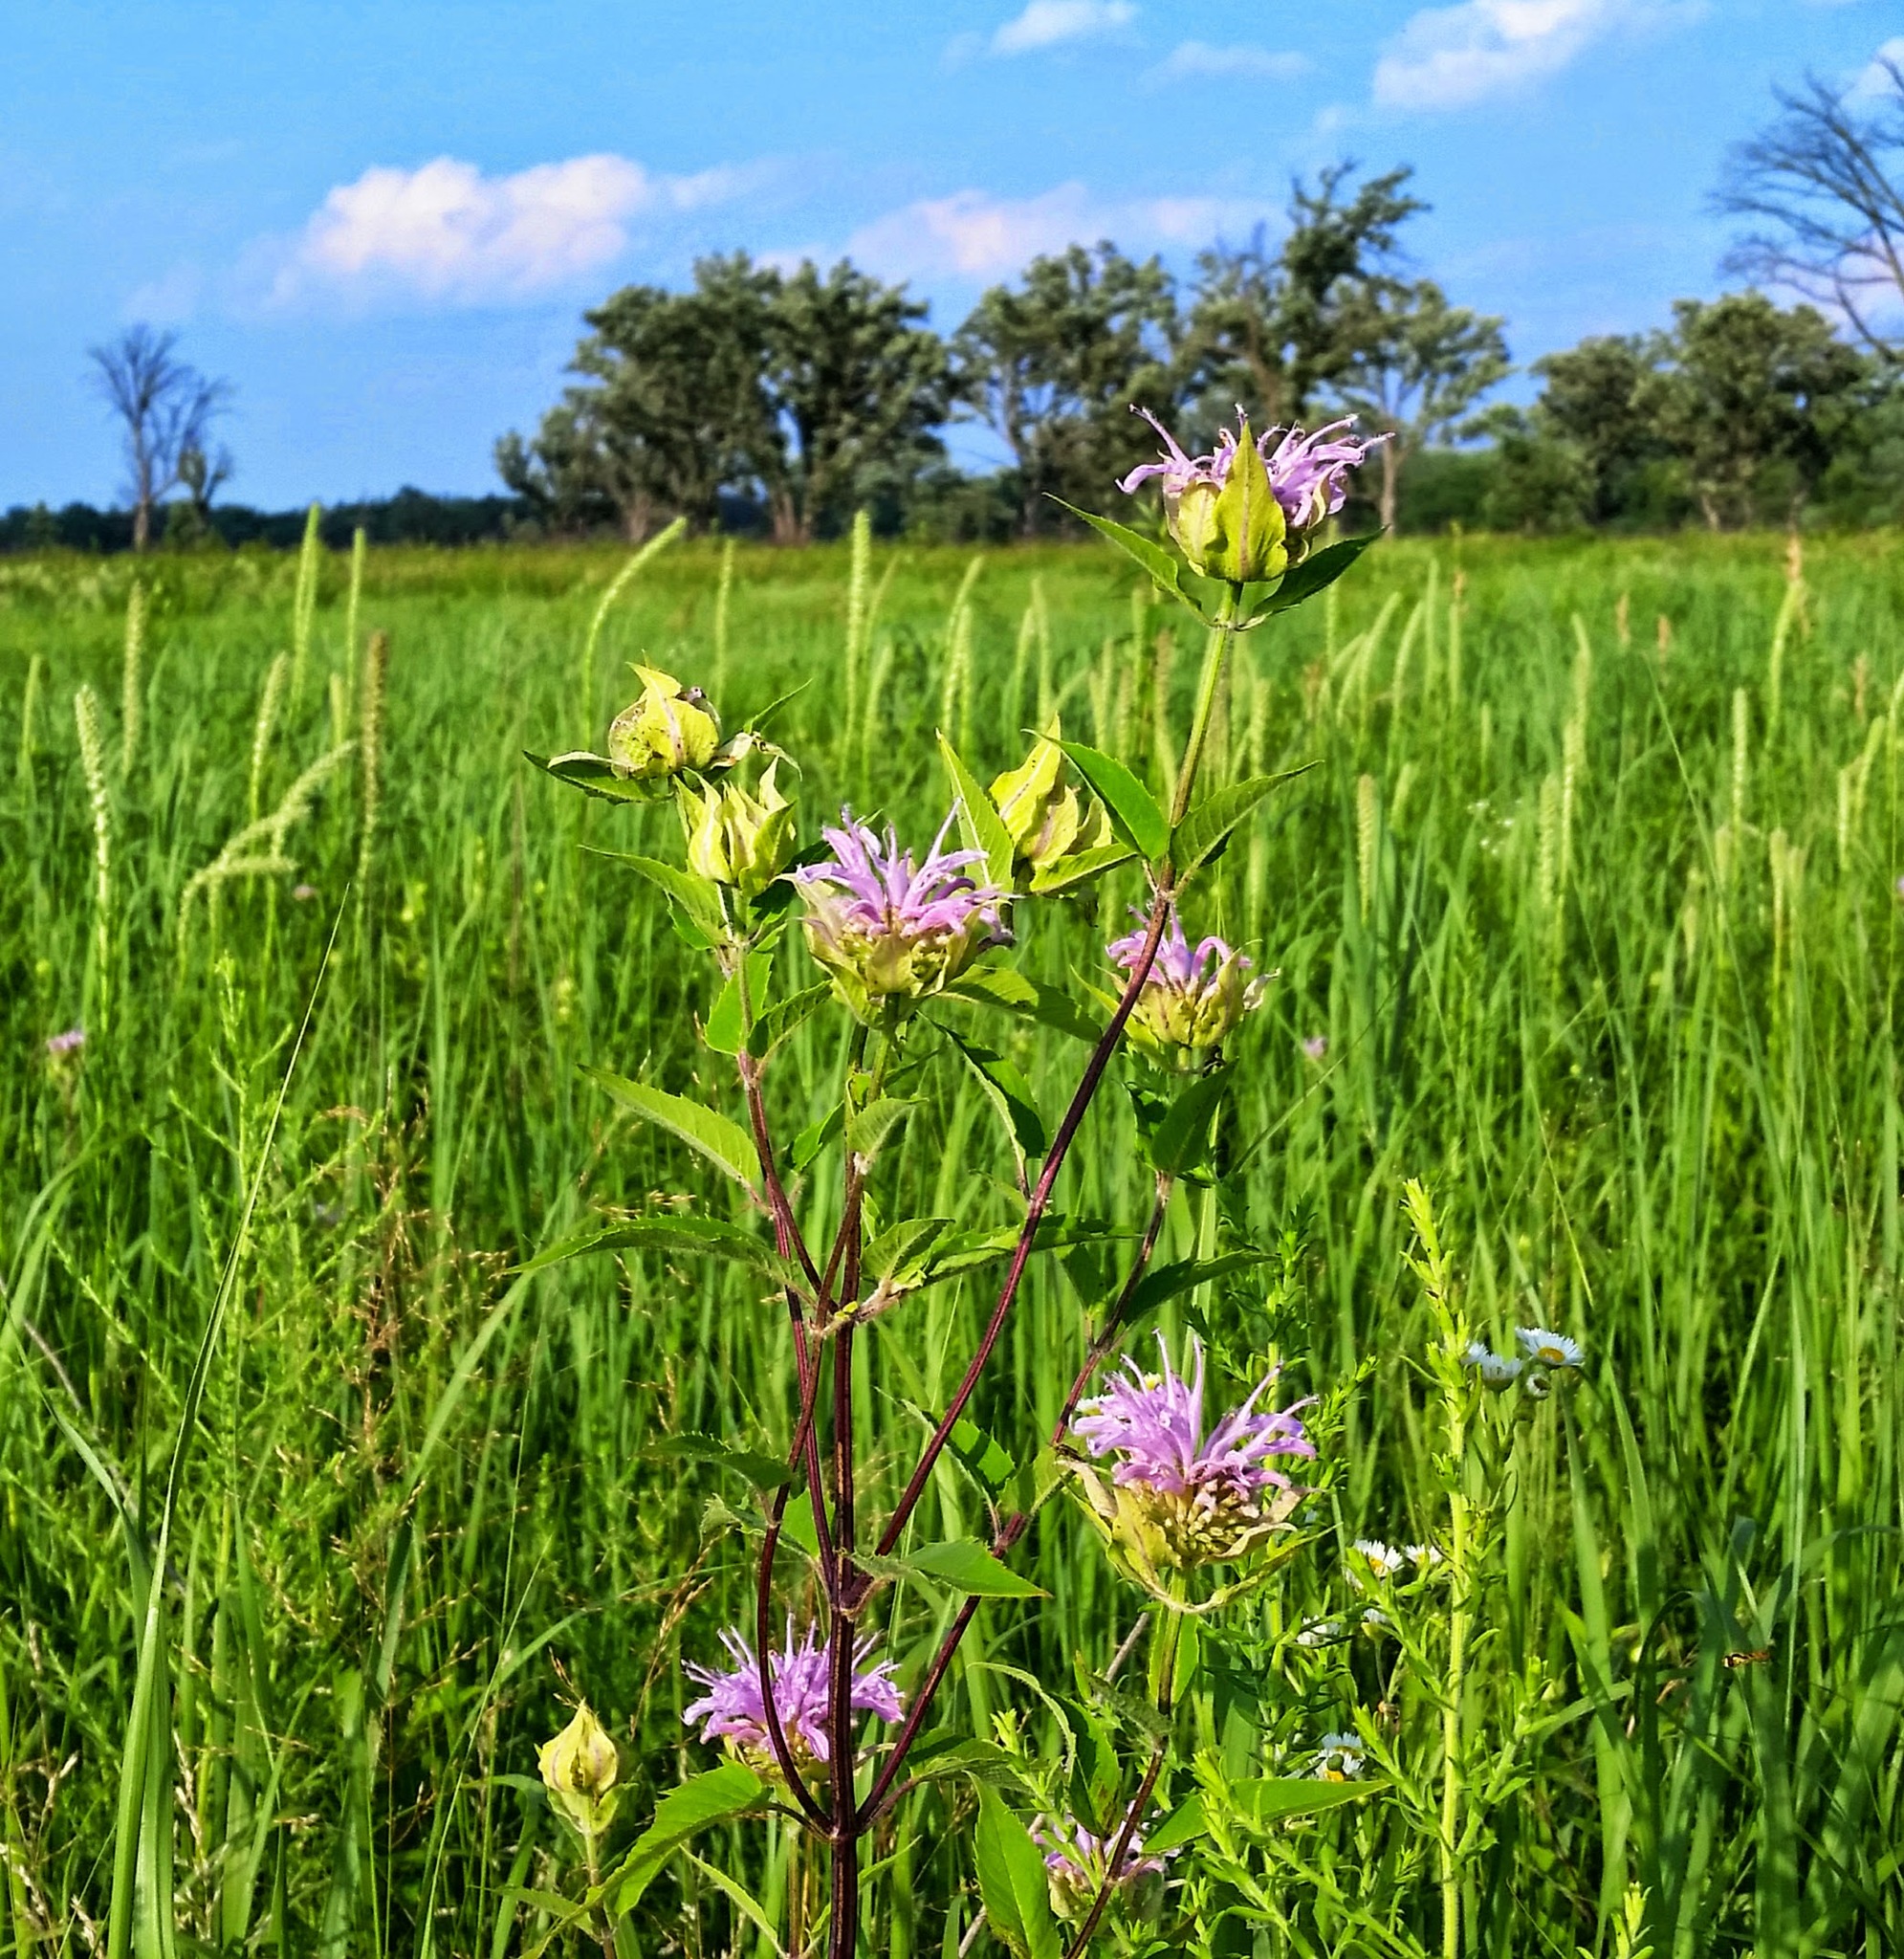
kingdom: Plantae
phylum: Tracheophyta
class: Magnoliopsida
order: Lamiales
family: Lamiaceae
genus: Monarda
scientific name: Monarda fistulosa
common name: Purple beebalm
